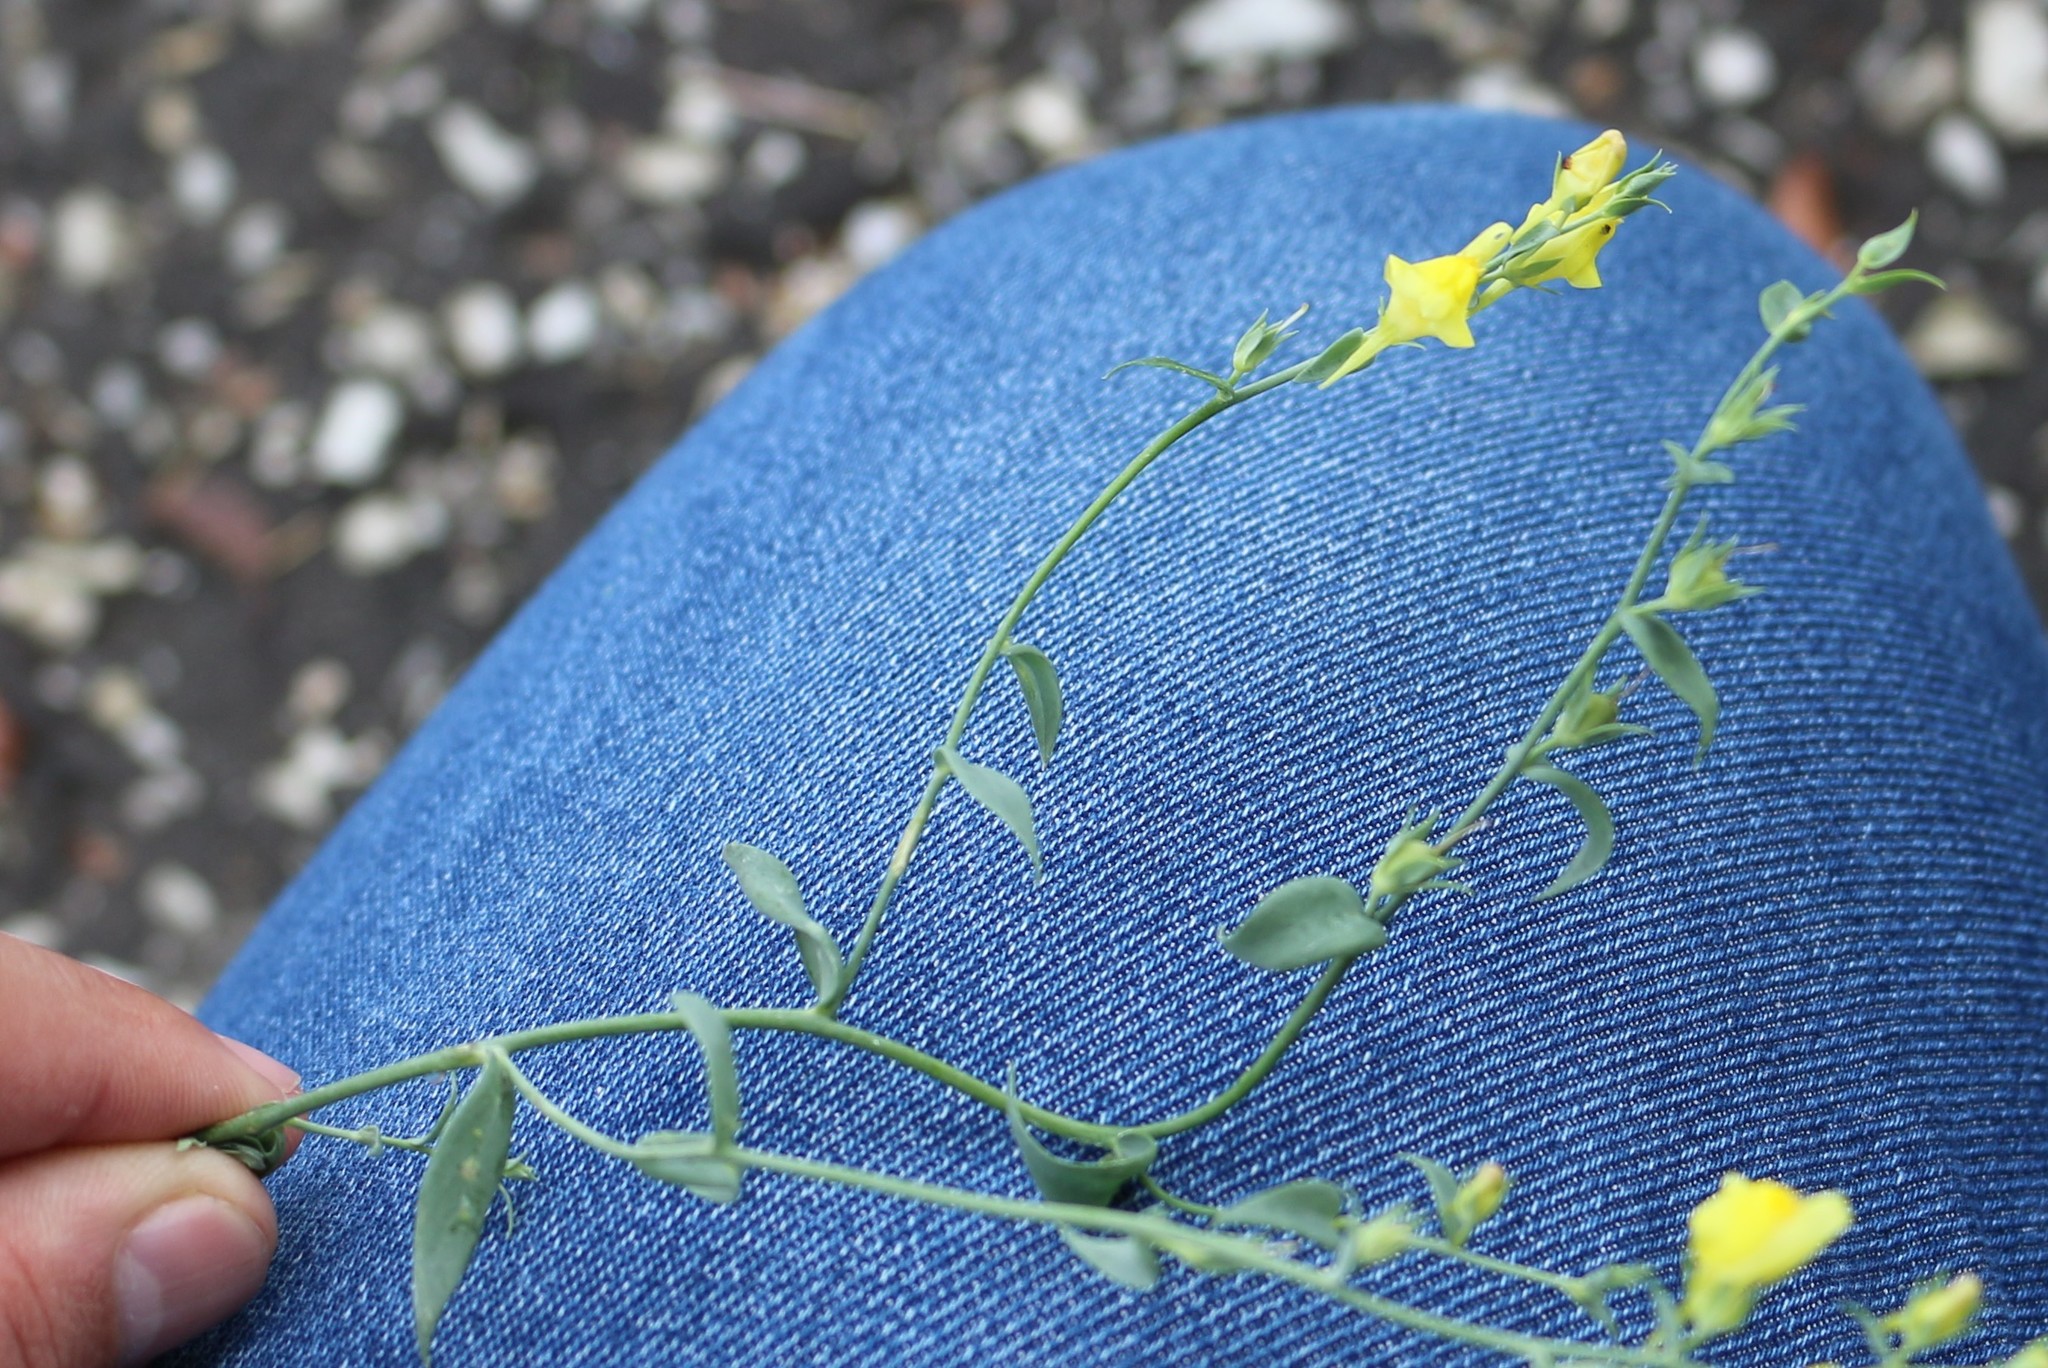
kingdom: Plantae
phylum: Tracheophyta
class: Magnoliopsida
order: Lamiales
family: Plantaginaceae
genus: Linaria
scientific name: Linaria genistifolia
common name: Broomleaf toadflax
